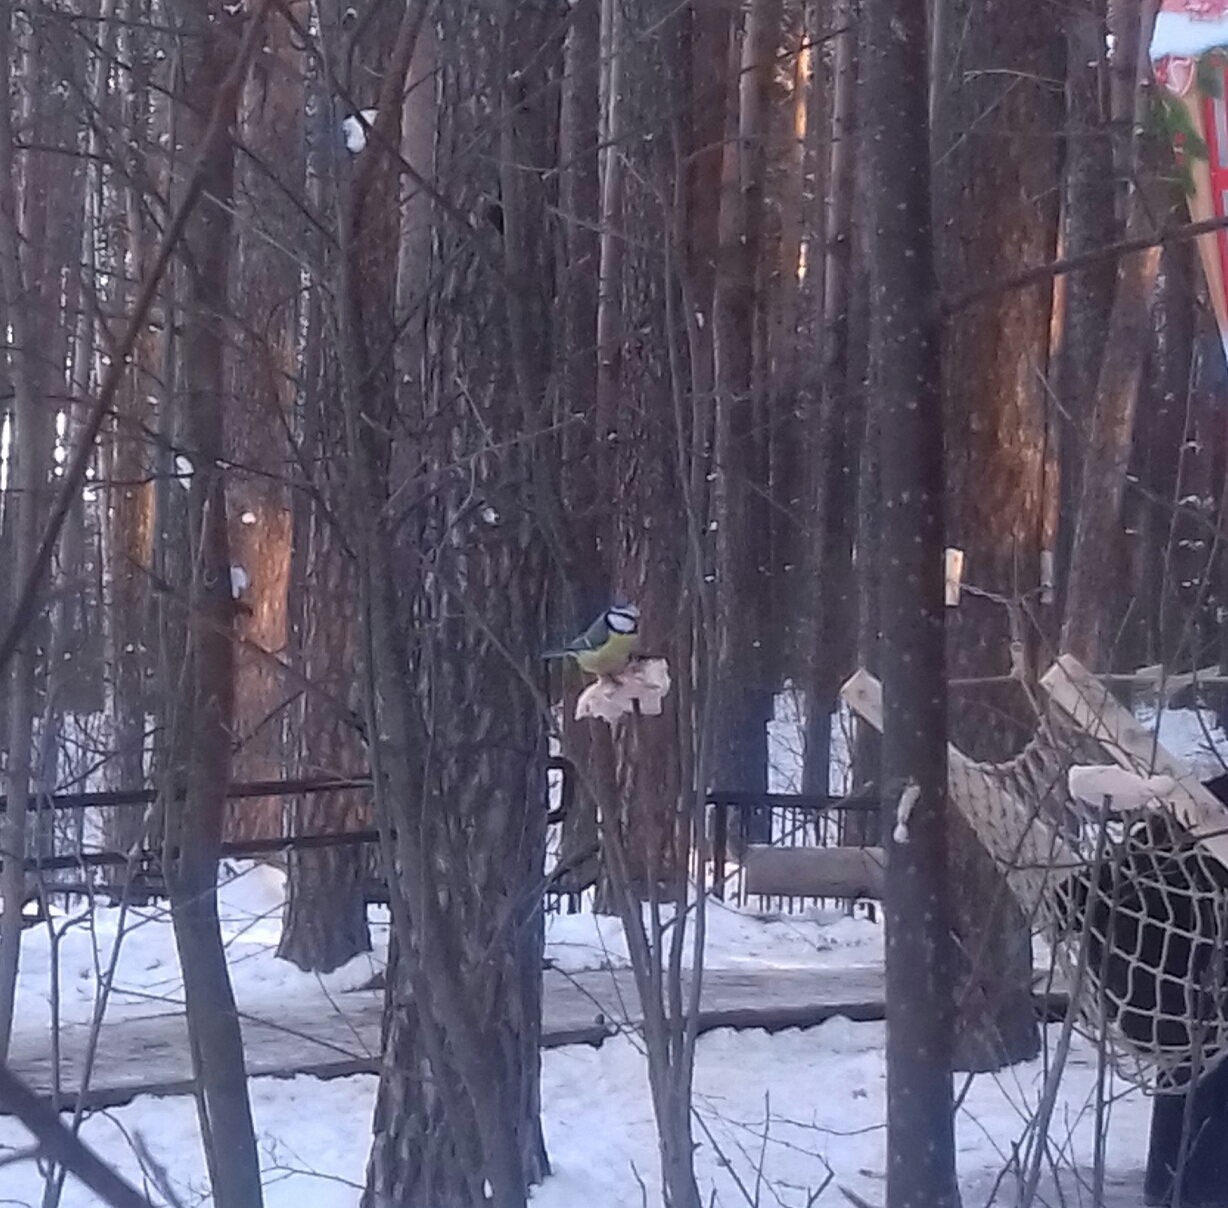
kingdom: Animalia
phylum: Chordata
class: Aves
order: Passeriformes
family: Paridae
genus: Cyanistes
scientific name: Cyanistes caeruleus
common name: Eurasian blue tit
